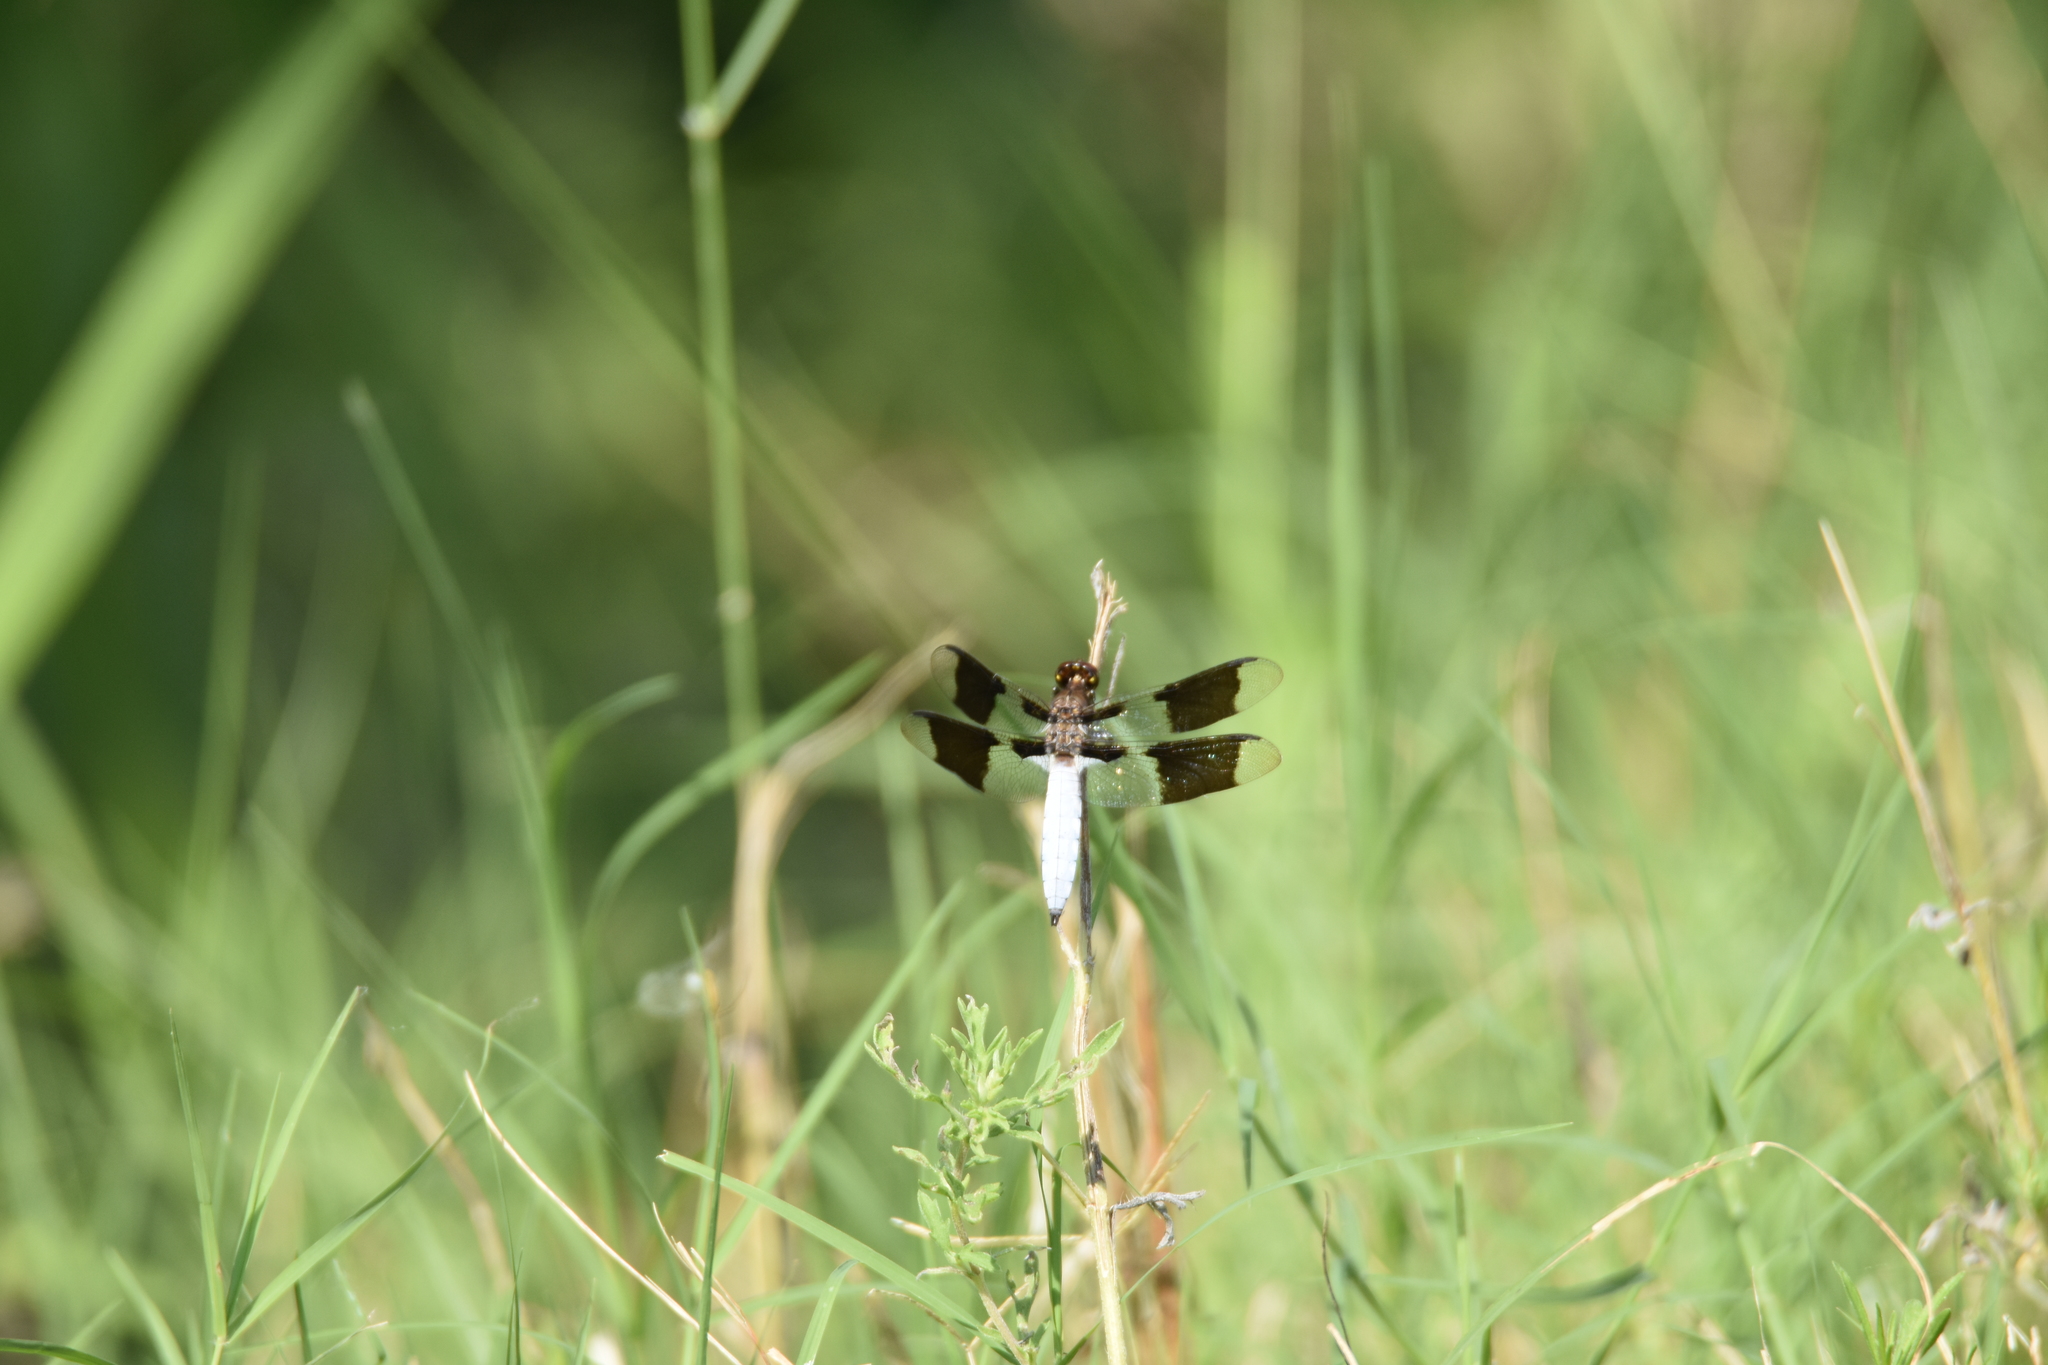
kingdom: Animalia
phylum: Arthropoda
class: Insecta
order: Odonata
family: Libellulidae
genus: Plathemis
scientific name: Plathemis lydia
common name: Common whitetail
